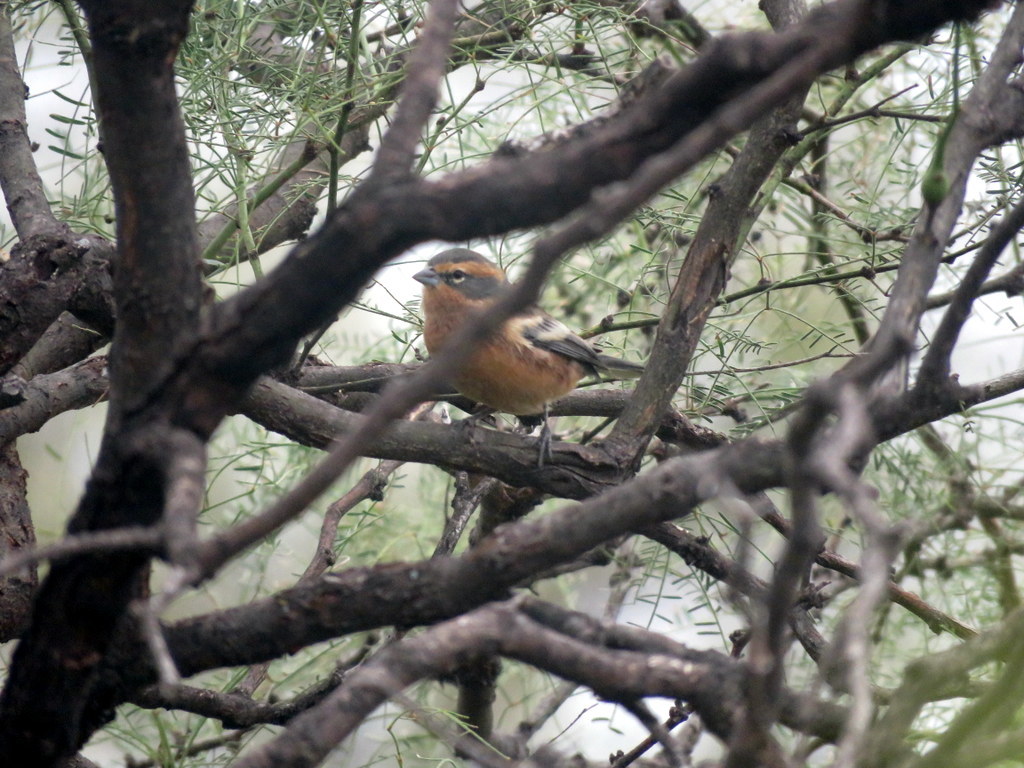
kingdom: Animalia
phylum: Chordata
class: Aves
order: Passeriformes
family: Thraupidae
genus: Poospiza
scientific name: Poospiza ornata
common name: Cinnamon warbling finch
